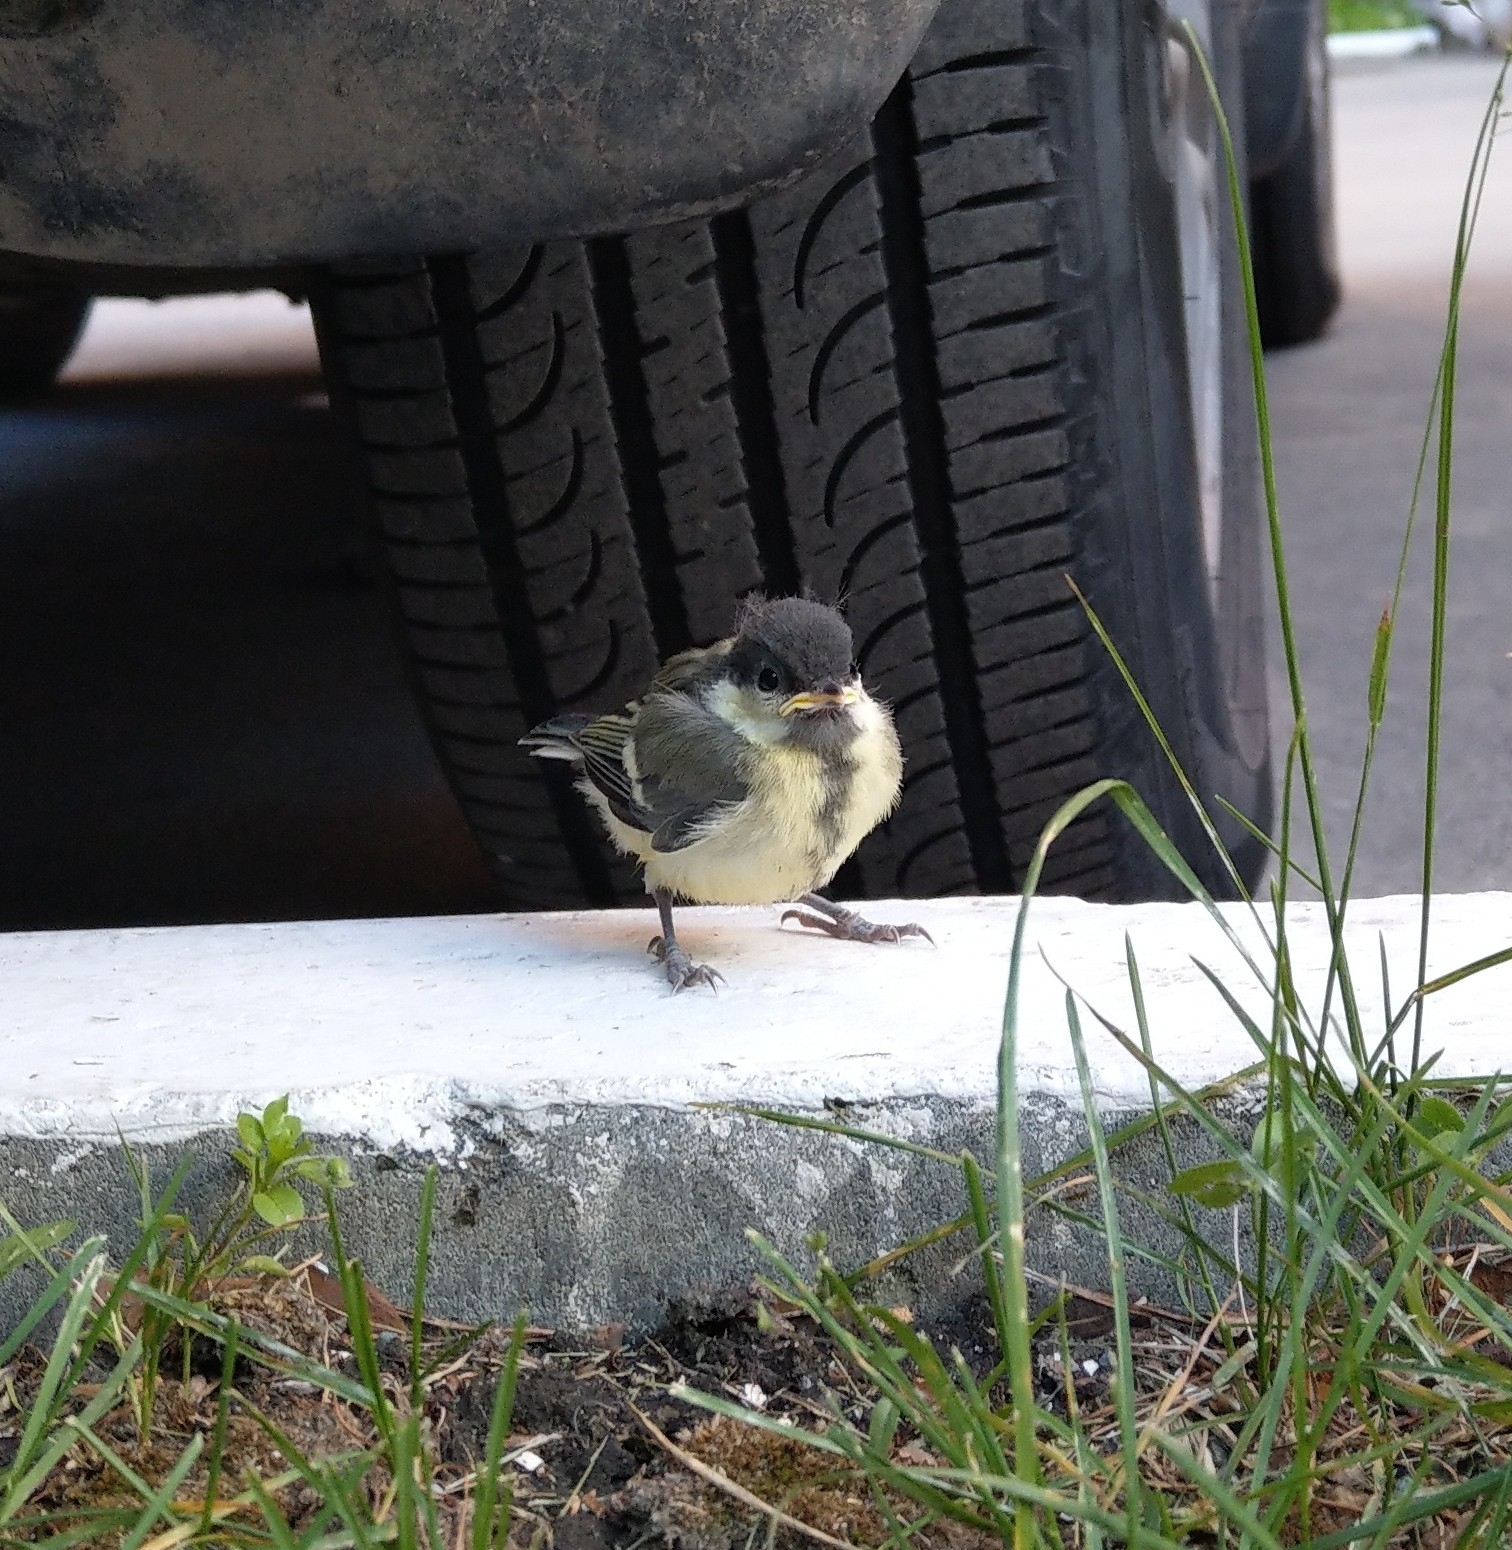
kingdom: Animalia
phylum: Chordata
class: Aves
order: Passeriformes
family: Paridae
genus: Parus
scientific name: Parus major
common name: Great tit
